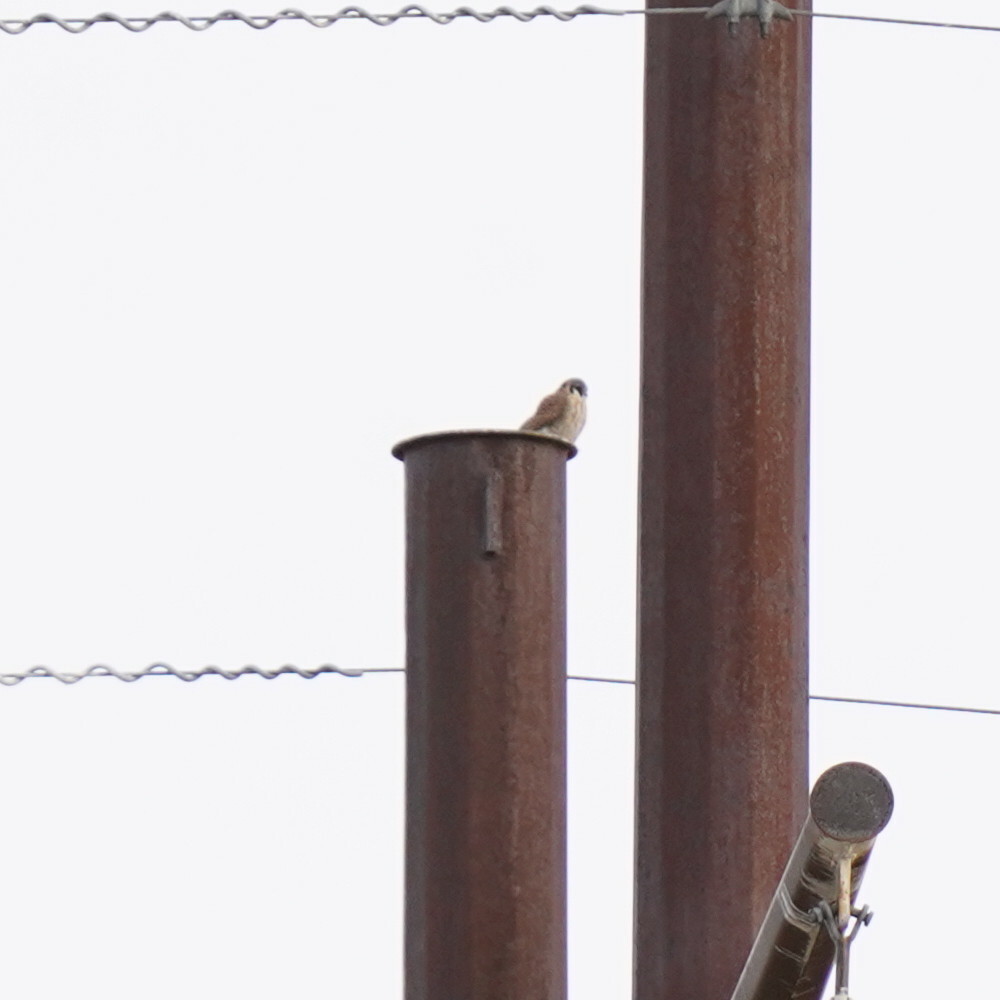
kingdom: Animalia
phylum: Chordata
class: Aves
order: Falconiformes
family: Falconidae
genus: Falco
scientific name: Falco sparverius
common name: American kestrel
